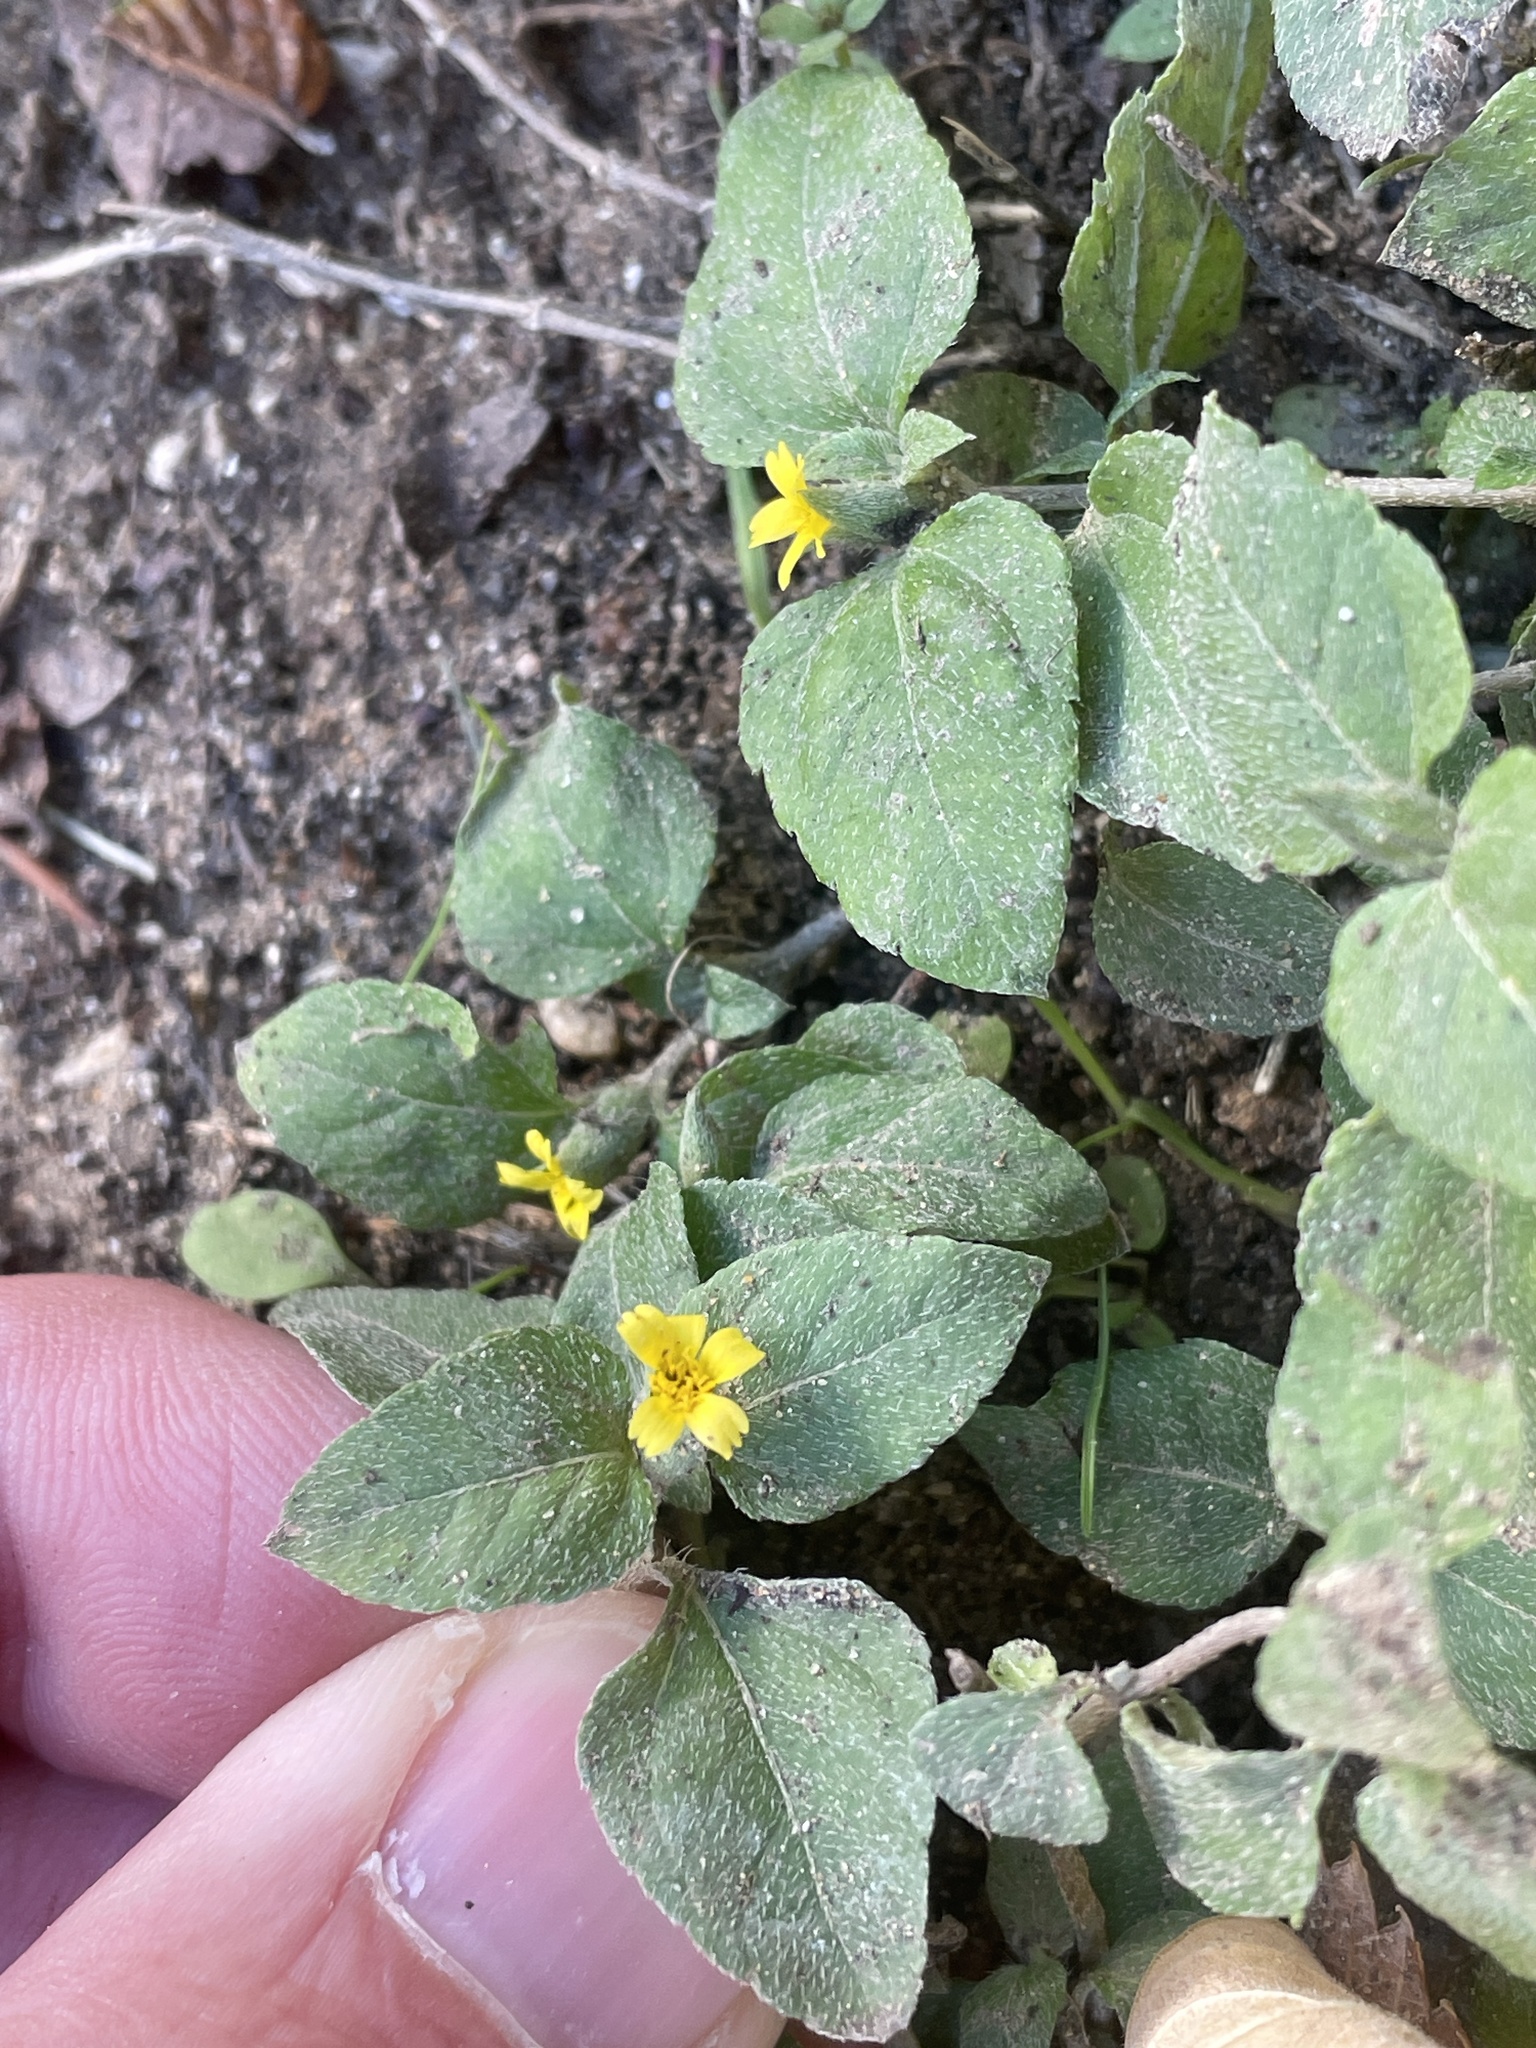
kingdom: Plantae
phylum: Tracheophyta
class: Magnoliopsida
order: Asterales
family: Asteraceae
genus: Calyptocarpus
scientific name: Calyptocarpus vialis
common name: Straggler daisy
